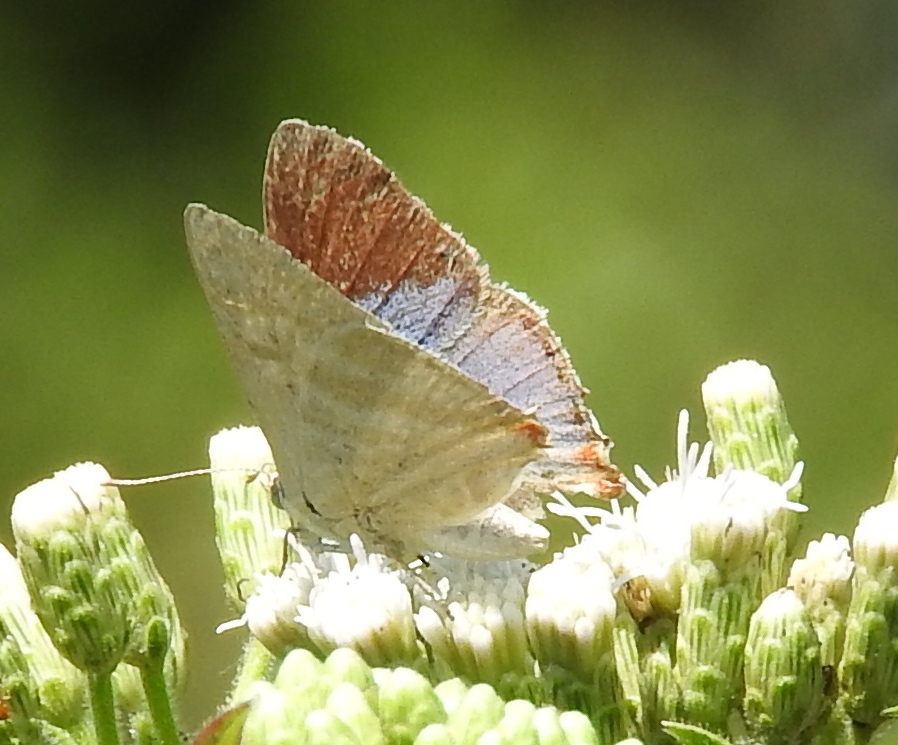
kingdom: Animalia
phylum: Arthropoda
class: Insecta
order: Lepidoptera
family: Lycaenidae
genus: Dolymorpha
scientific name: Dolymorpha jada
